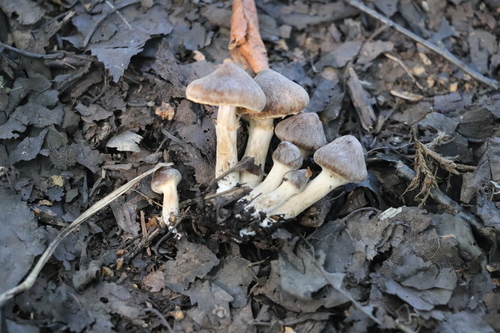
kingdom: Fungi
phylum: Basidiomycota
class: Agaricomycetes
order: Agaricales
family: Cortinariaceae
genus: Cortinarius
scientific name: Cortinarius
